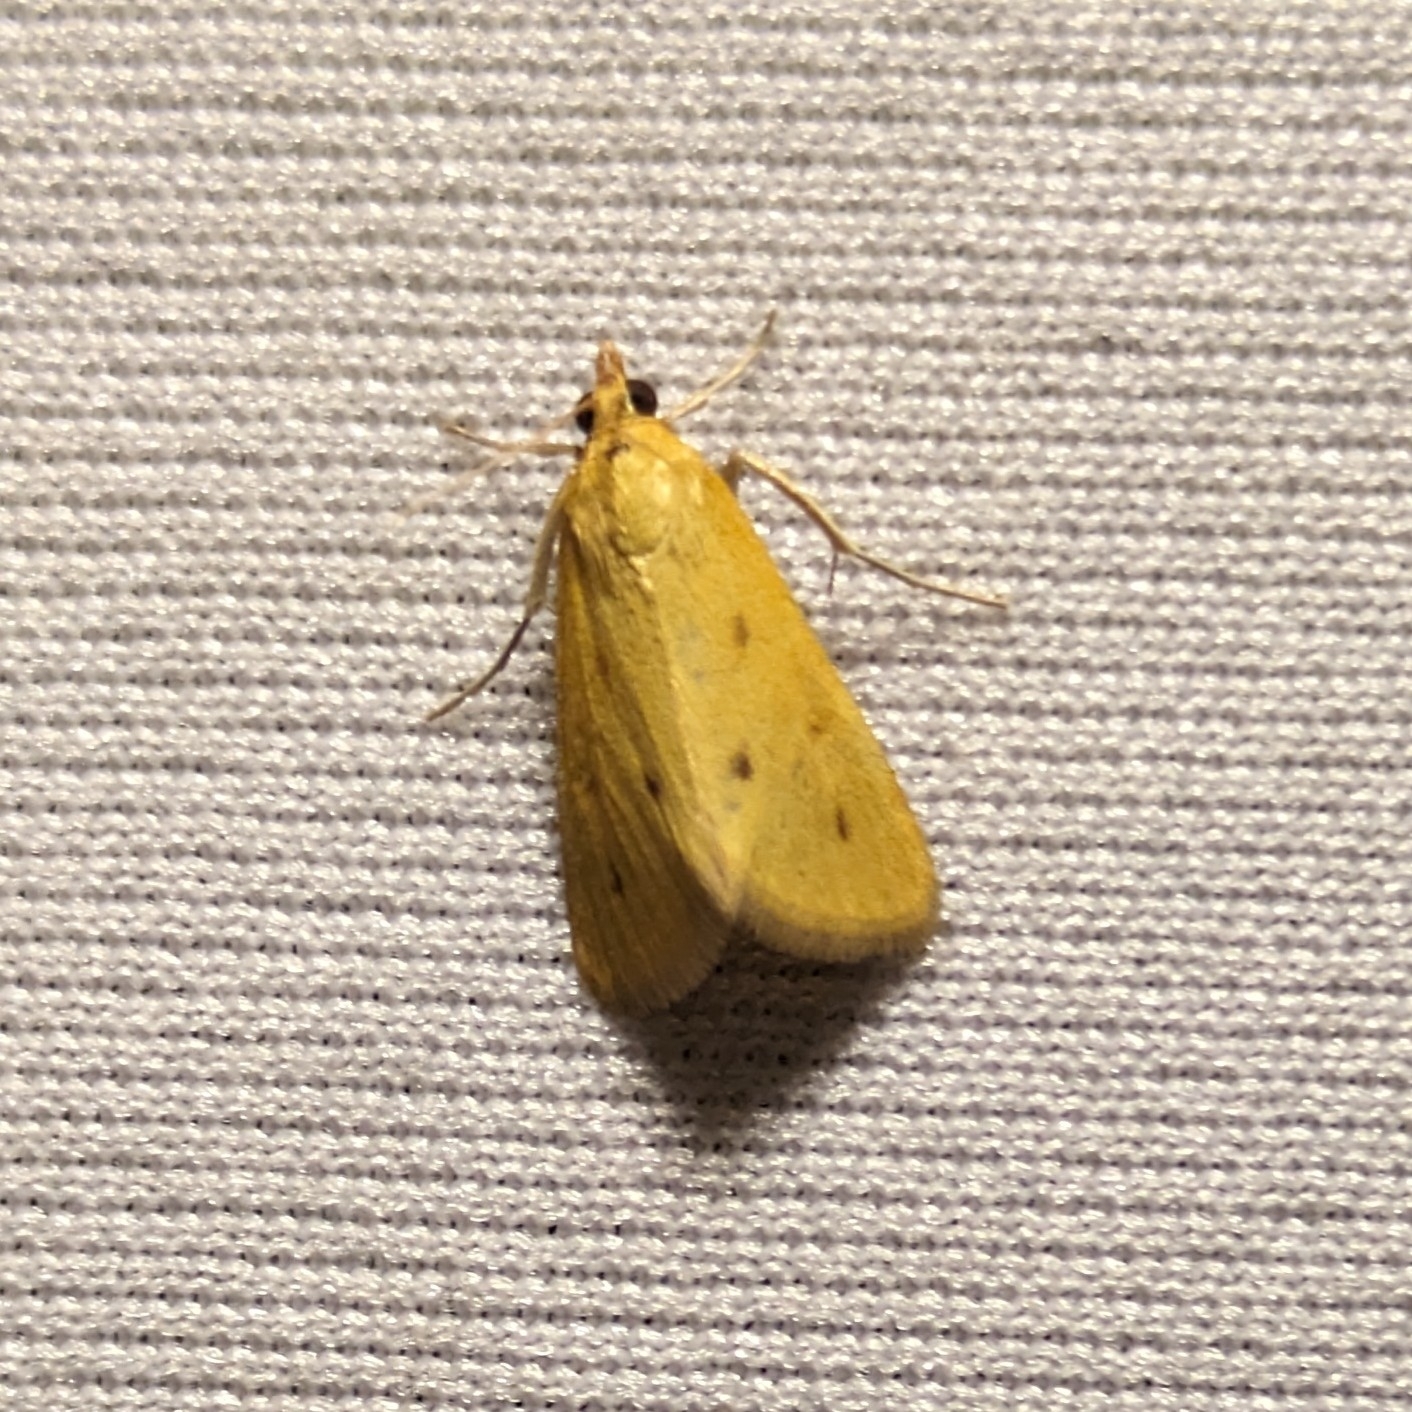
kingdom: Animalia
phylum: Arthropoda
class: Insecta
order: Lepidoptera
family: Crambidae
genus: Achyra
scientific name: Achyra nudalis
